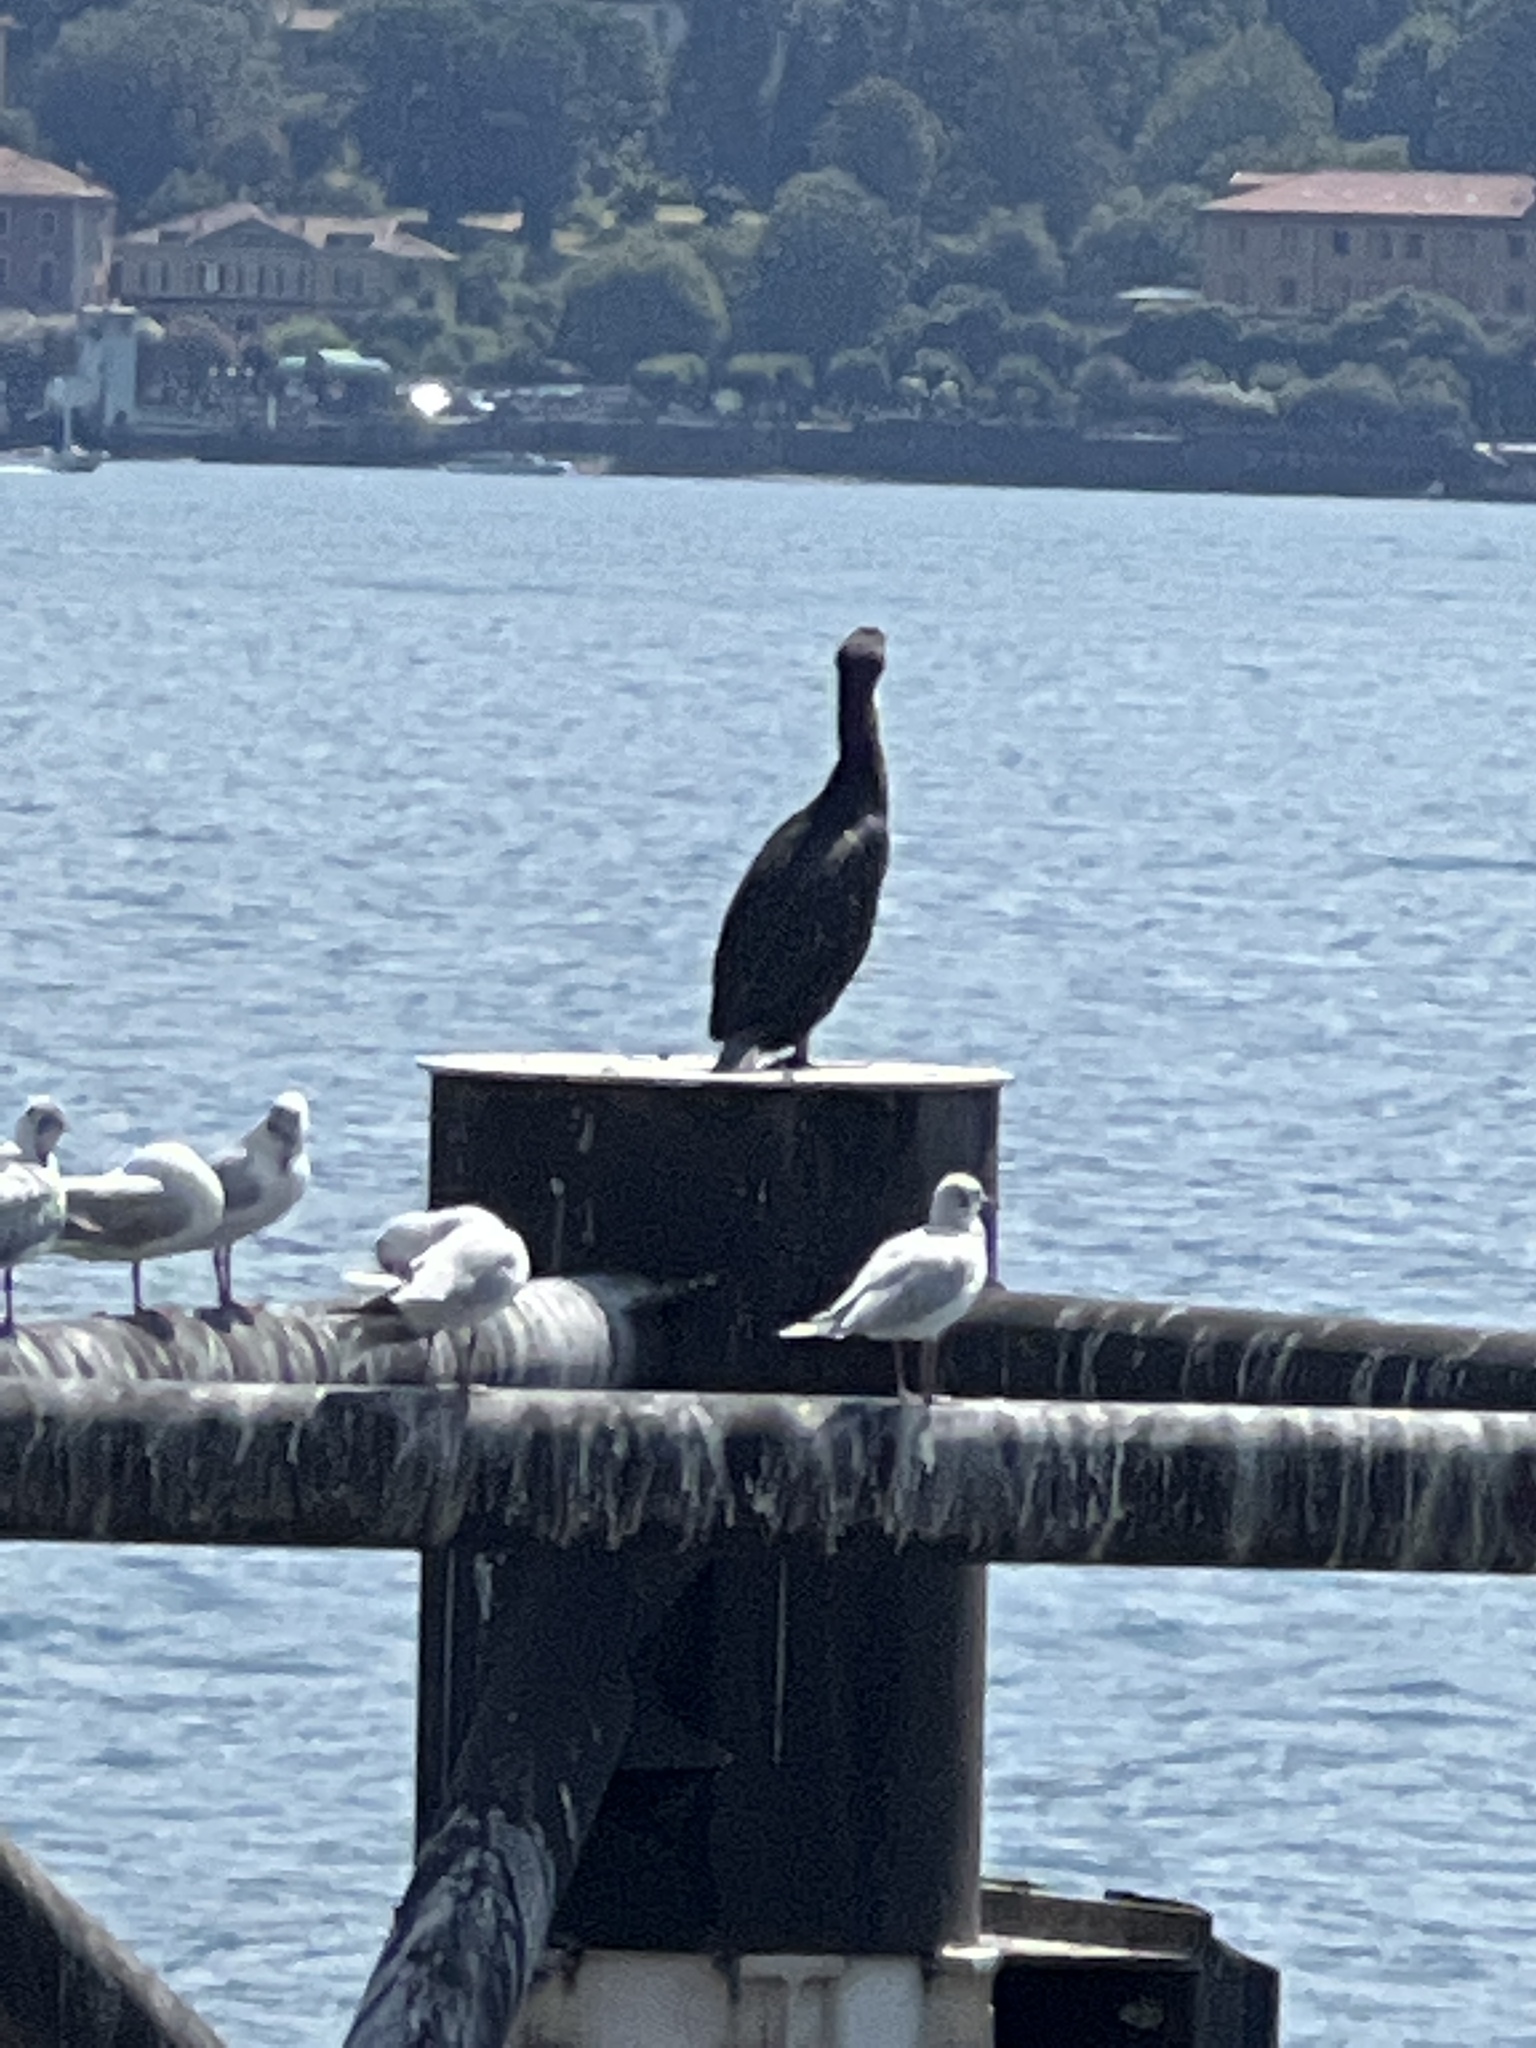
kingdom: Animalia
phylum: Chordata
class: Aves
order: Suliformes
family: Phalacrocoracidae
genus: Phalacrocorax
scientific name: Phalacrocorax carbo
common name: Great cormorant
